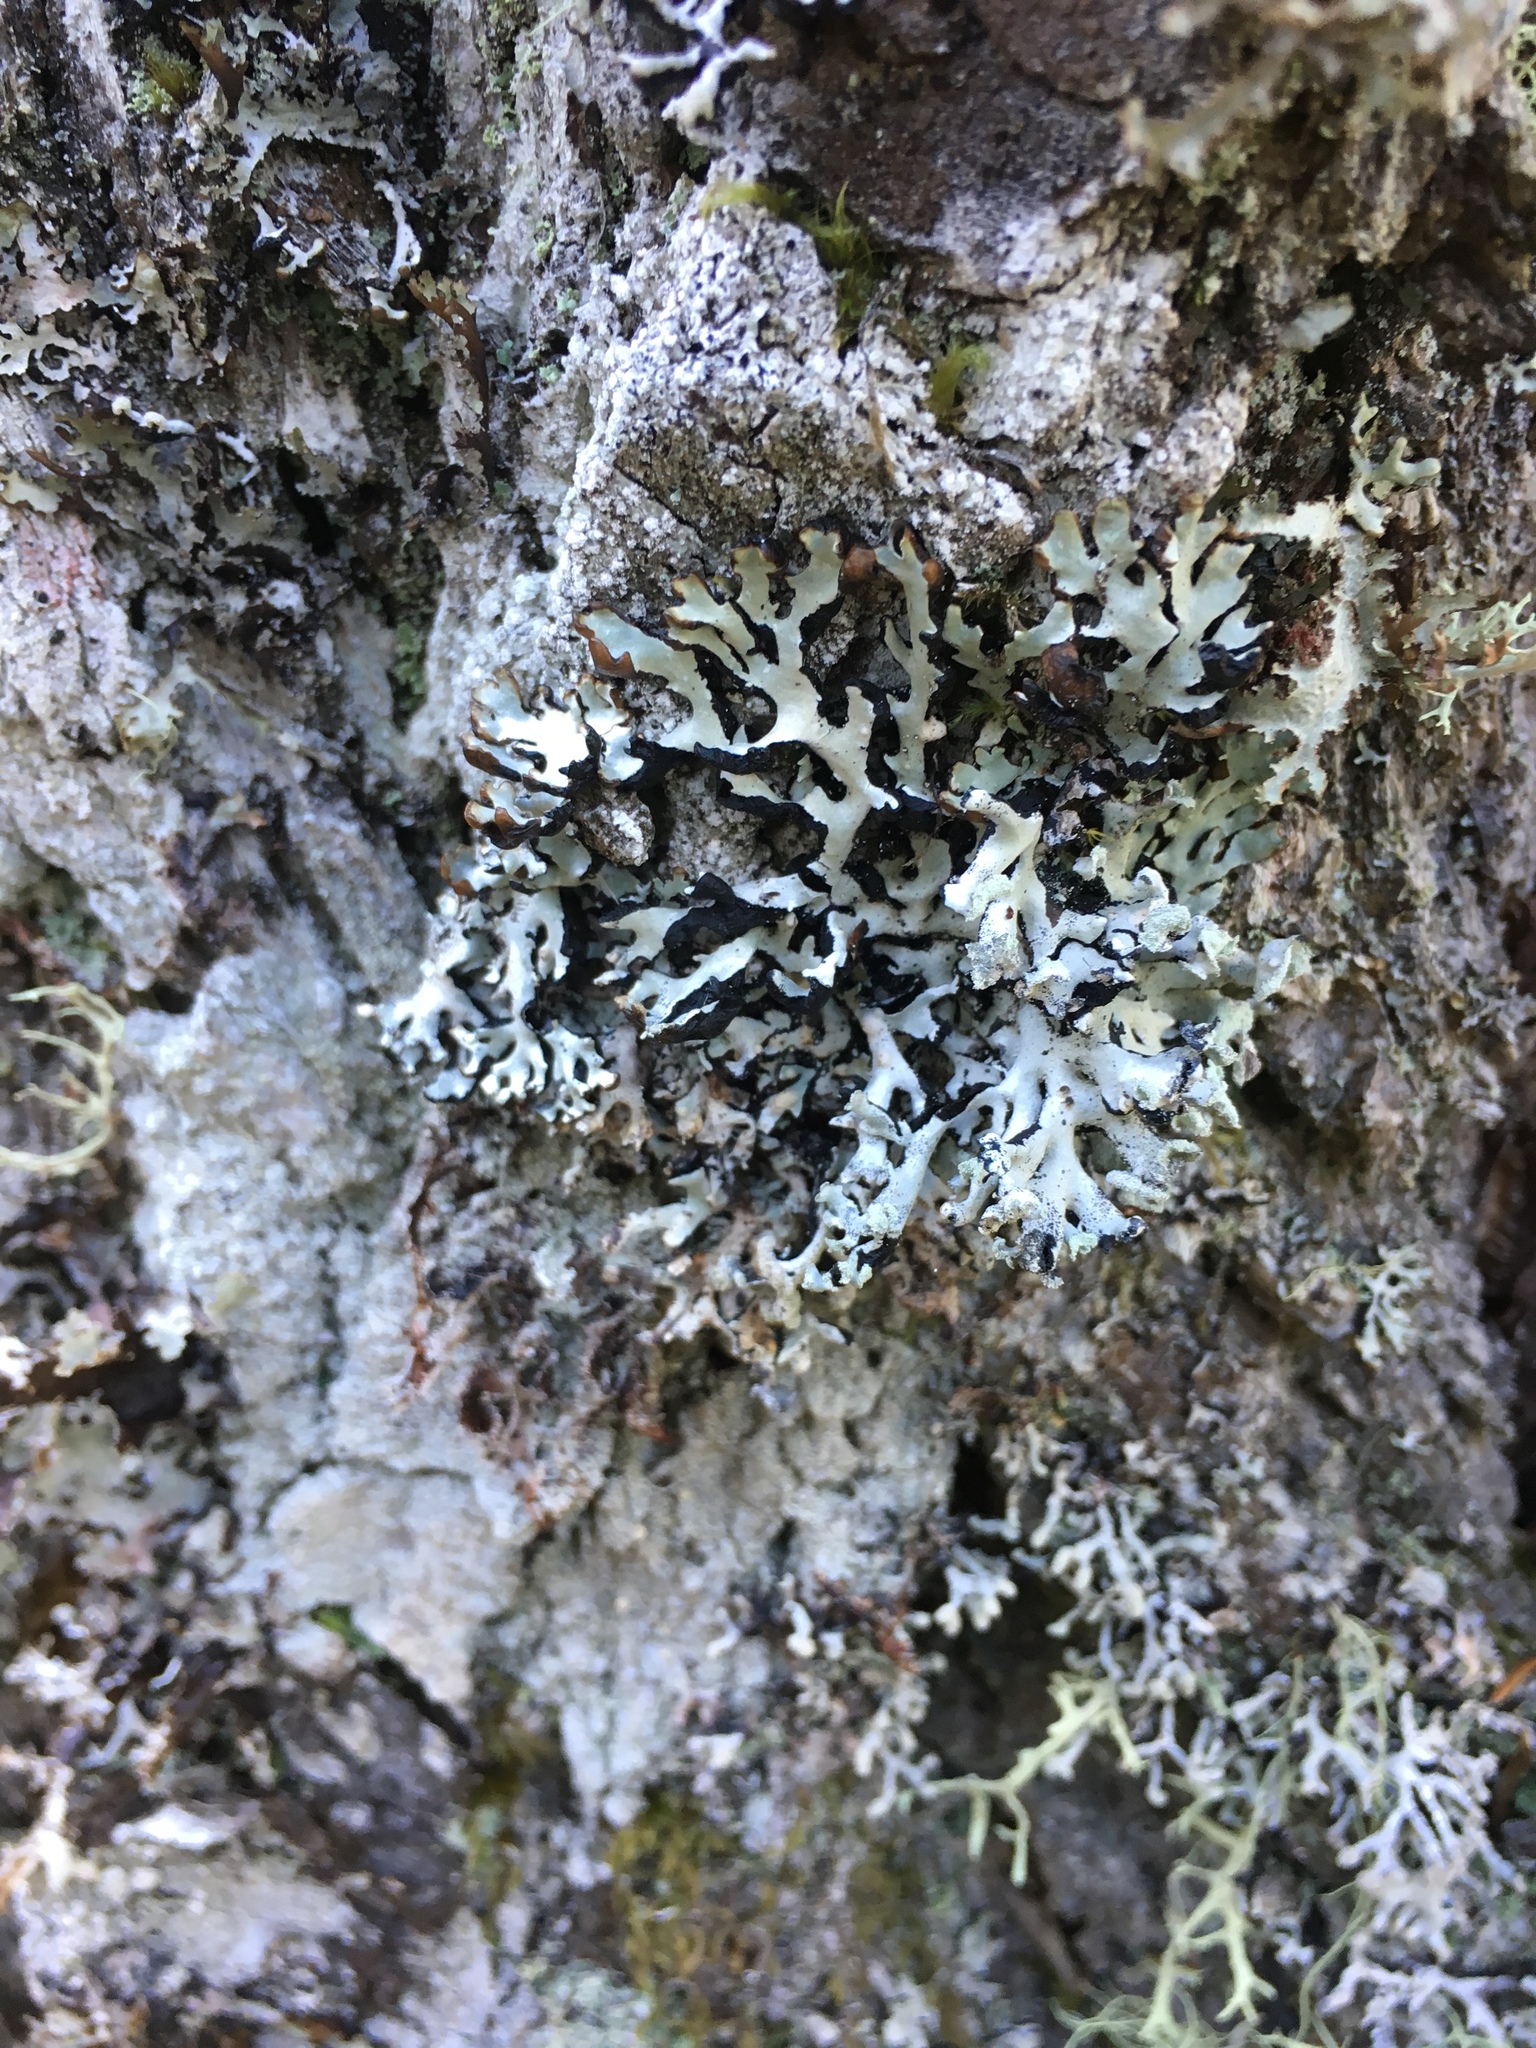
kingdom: Fungi
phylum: Ascomycota
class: Lecanoromycetes
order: Lecanorales
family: Parmeliaceae
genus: Hypogymnia
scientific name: Hypogymnia physodes
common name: Dark crottle
